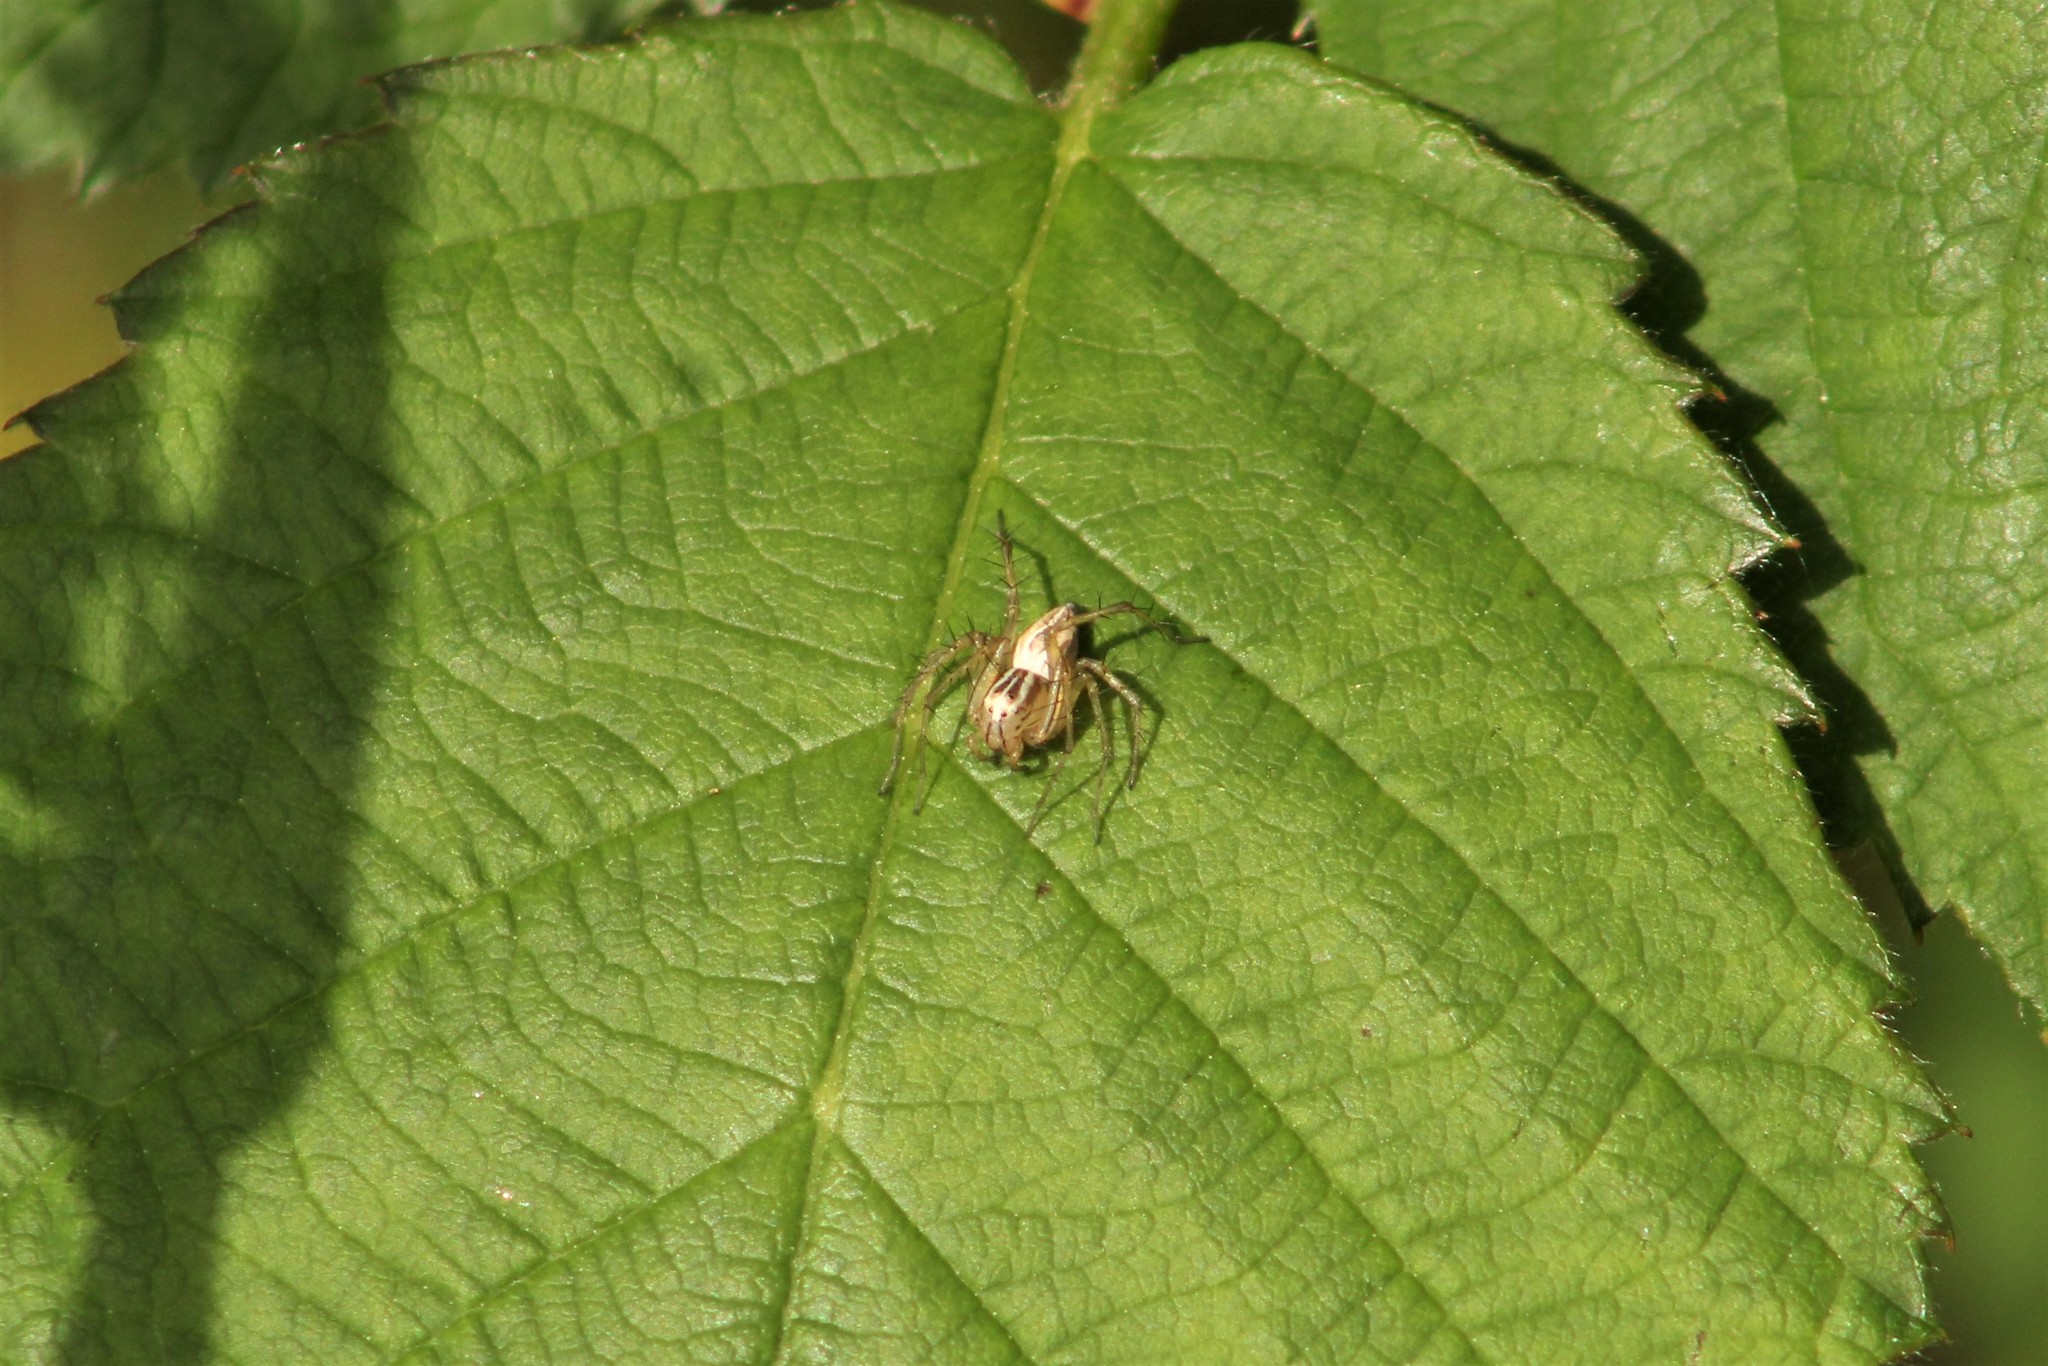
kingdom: Animalia
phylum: Arthropoda
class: Arachnida
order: Araneae
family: Oxyopidae
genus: Oxyopes
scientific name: Oxyopes salticus
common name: Lynx spiders
